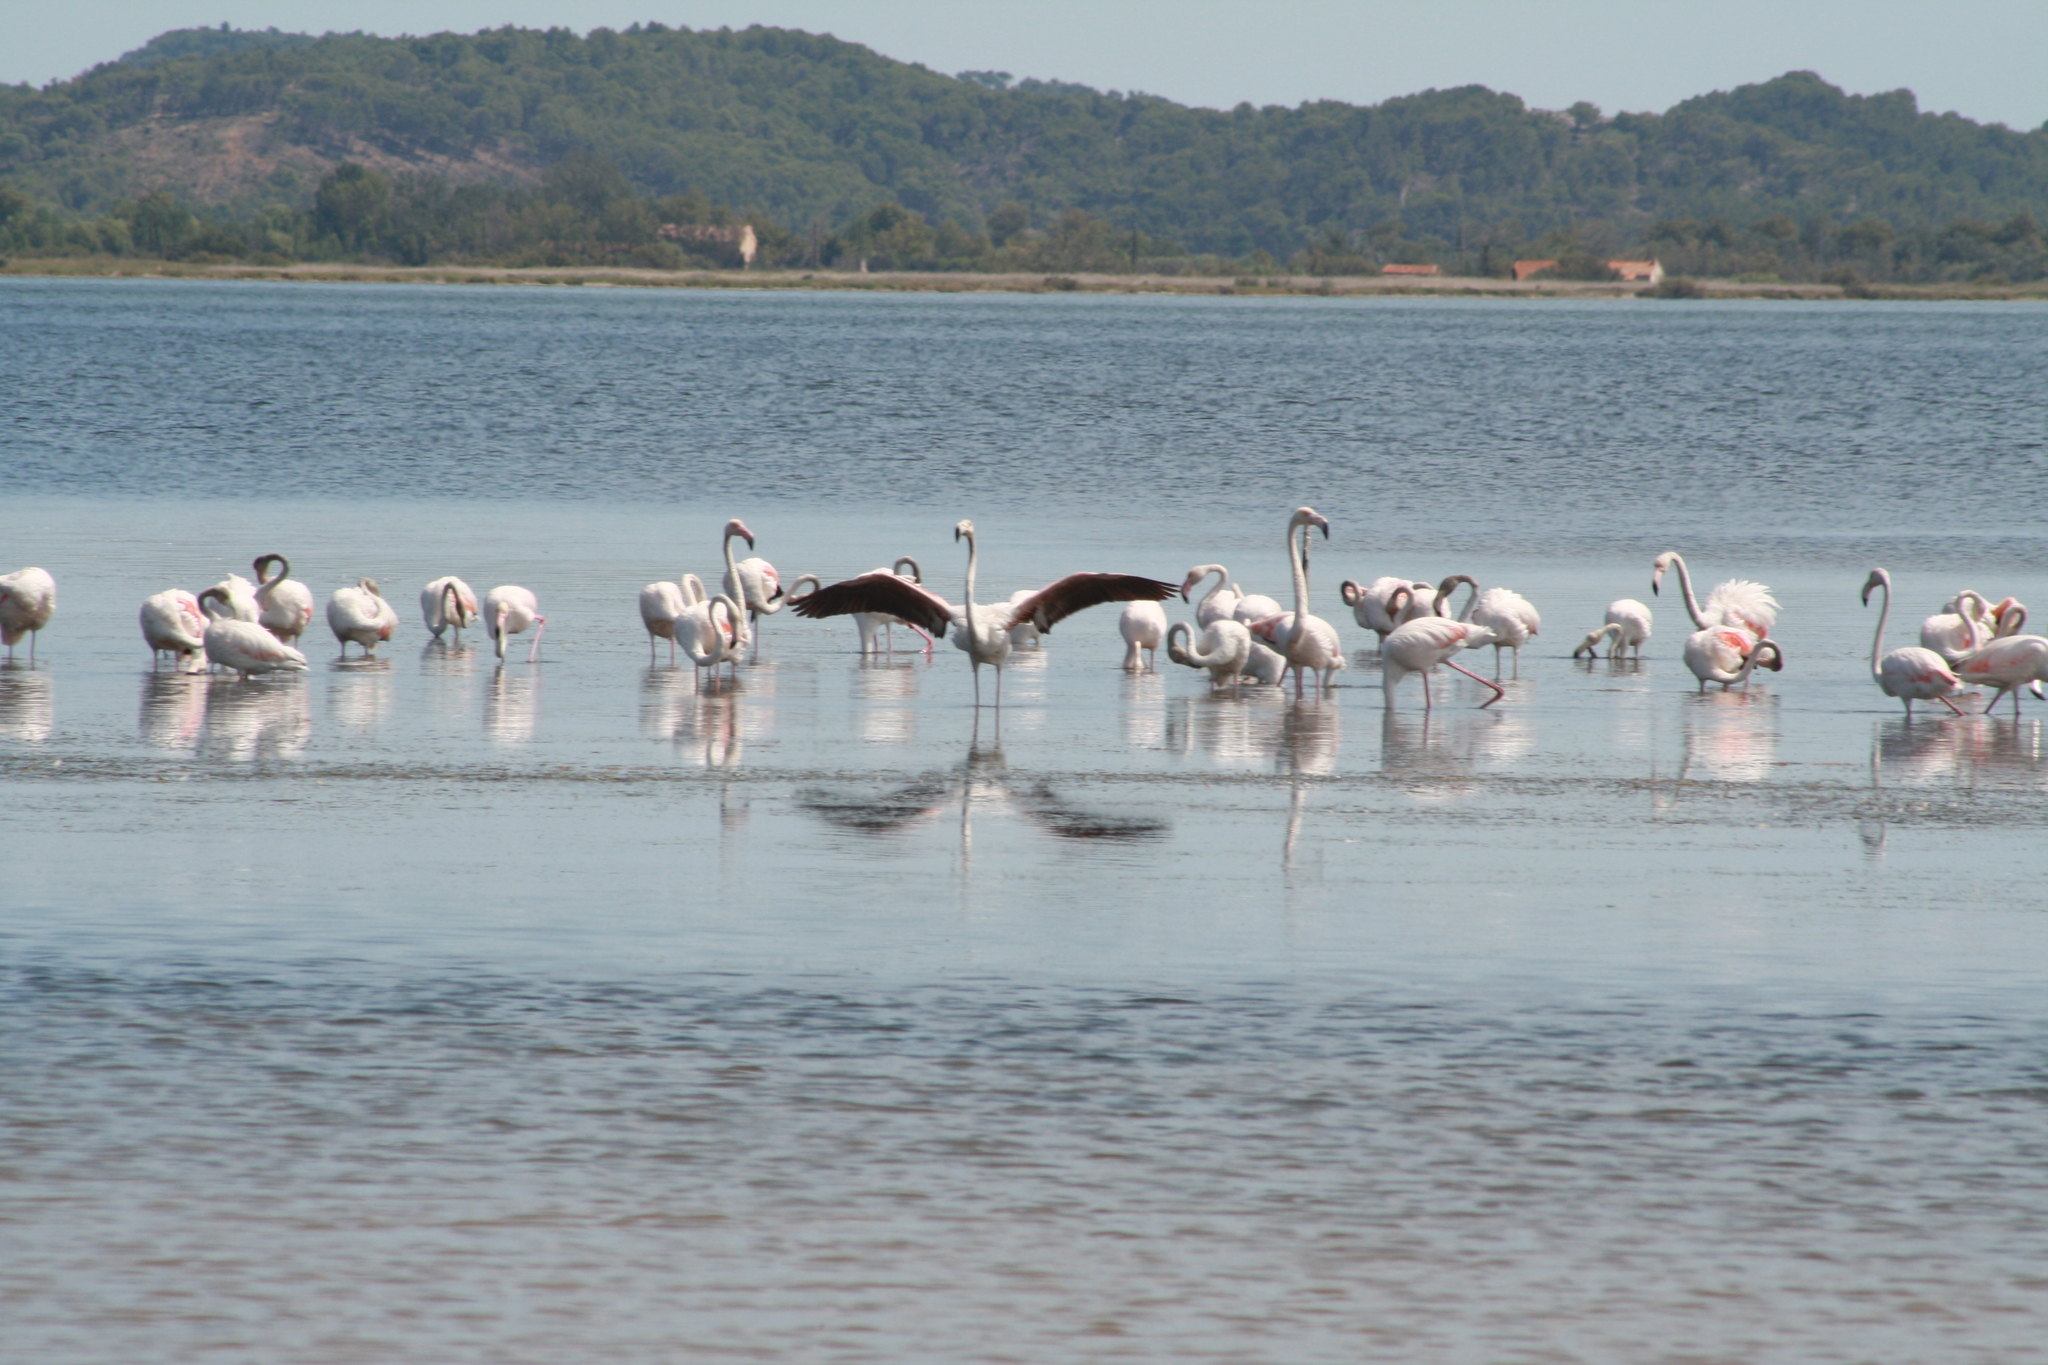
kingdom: Animalia
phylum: Chordata
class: Aves
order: Phoenicopteriformes
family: Phoenicopteridae
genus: Phoenicopterus
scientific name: Phoenicopterus roseus
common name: Greater flamingo
